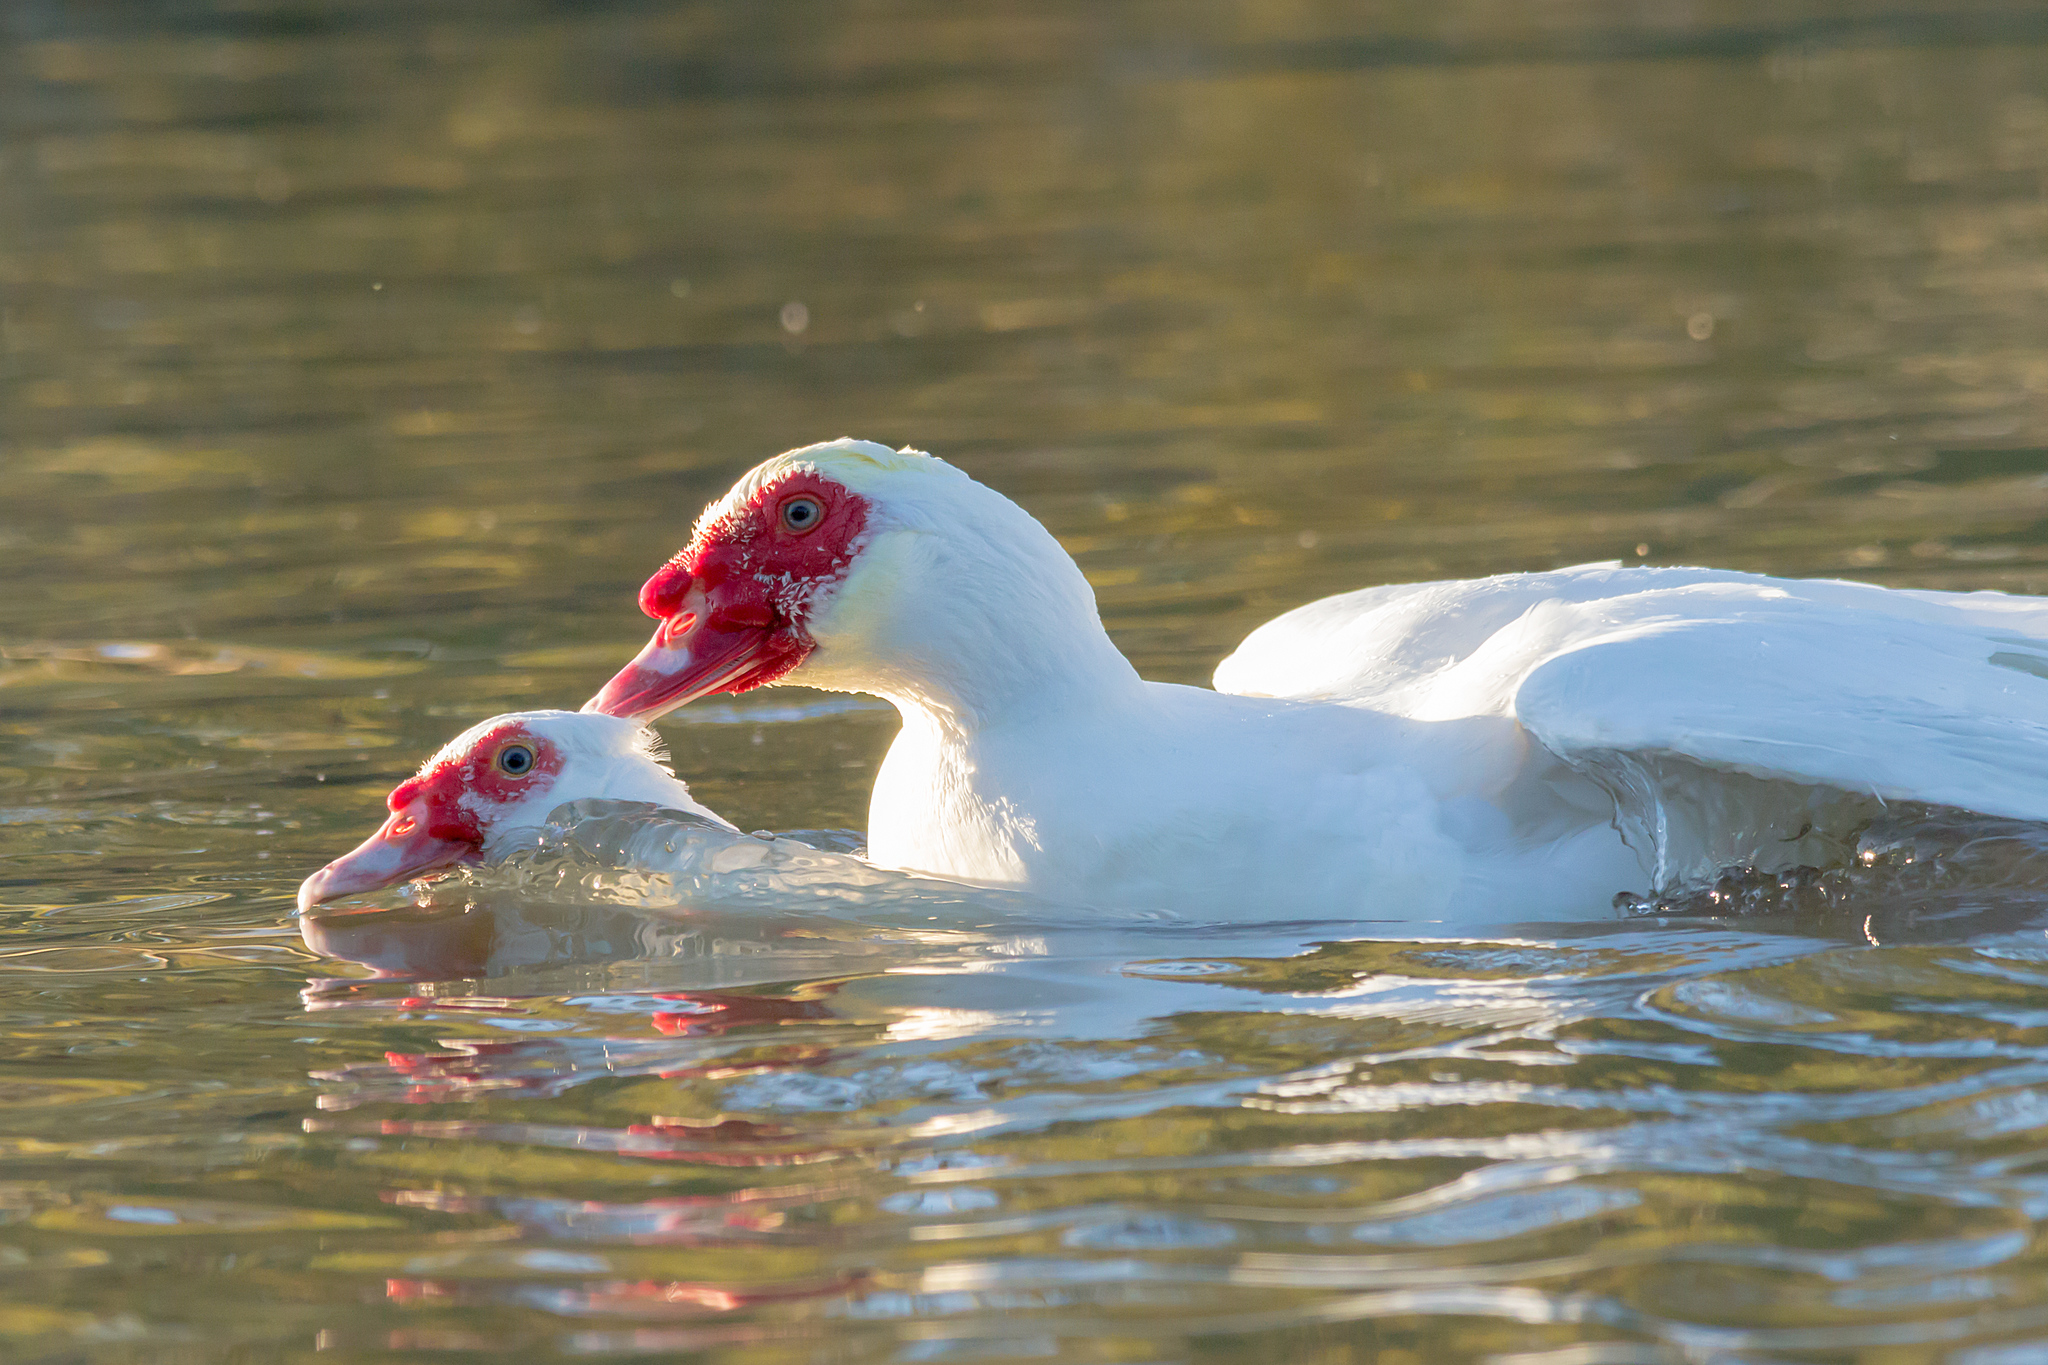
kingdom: Animalia
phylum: Chordata
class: Aves
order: Anseriformes
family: Anatidae
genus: Cairina
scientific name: Cairina moschata
